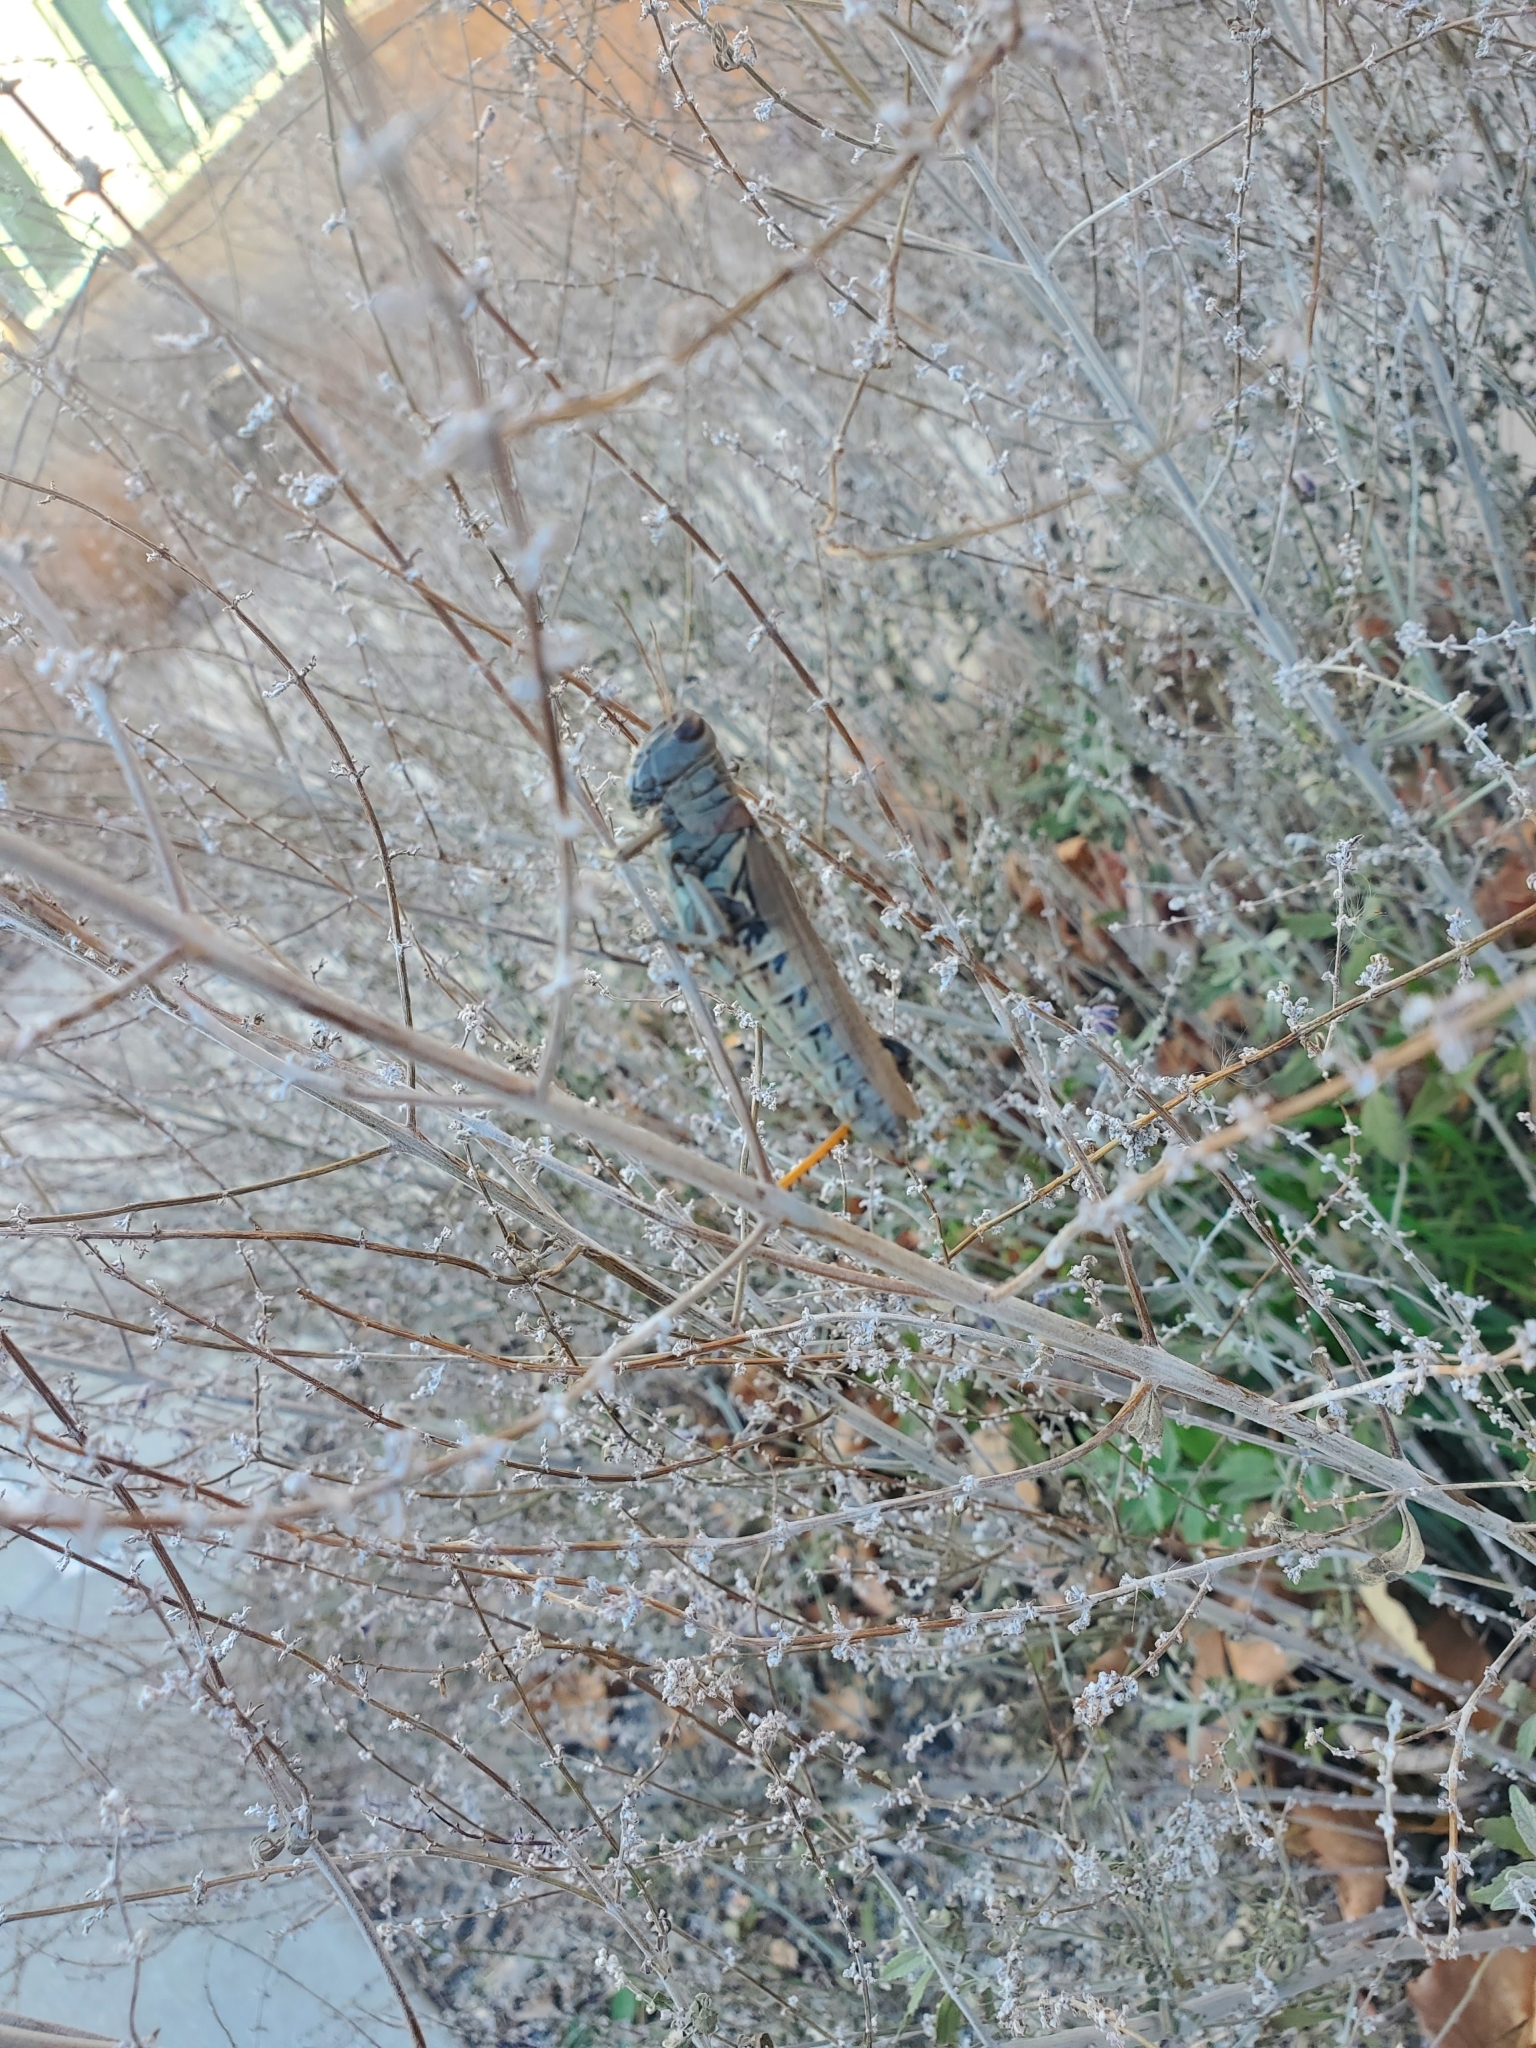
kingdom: Animalia
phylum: Arthropoda
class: Insecta
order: Orthoptera
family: Acrididae
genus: Melanoplus
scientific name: Melanoplus differentialis
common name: Differential grasshopper
